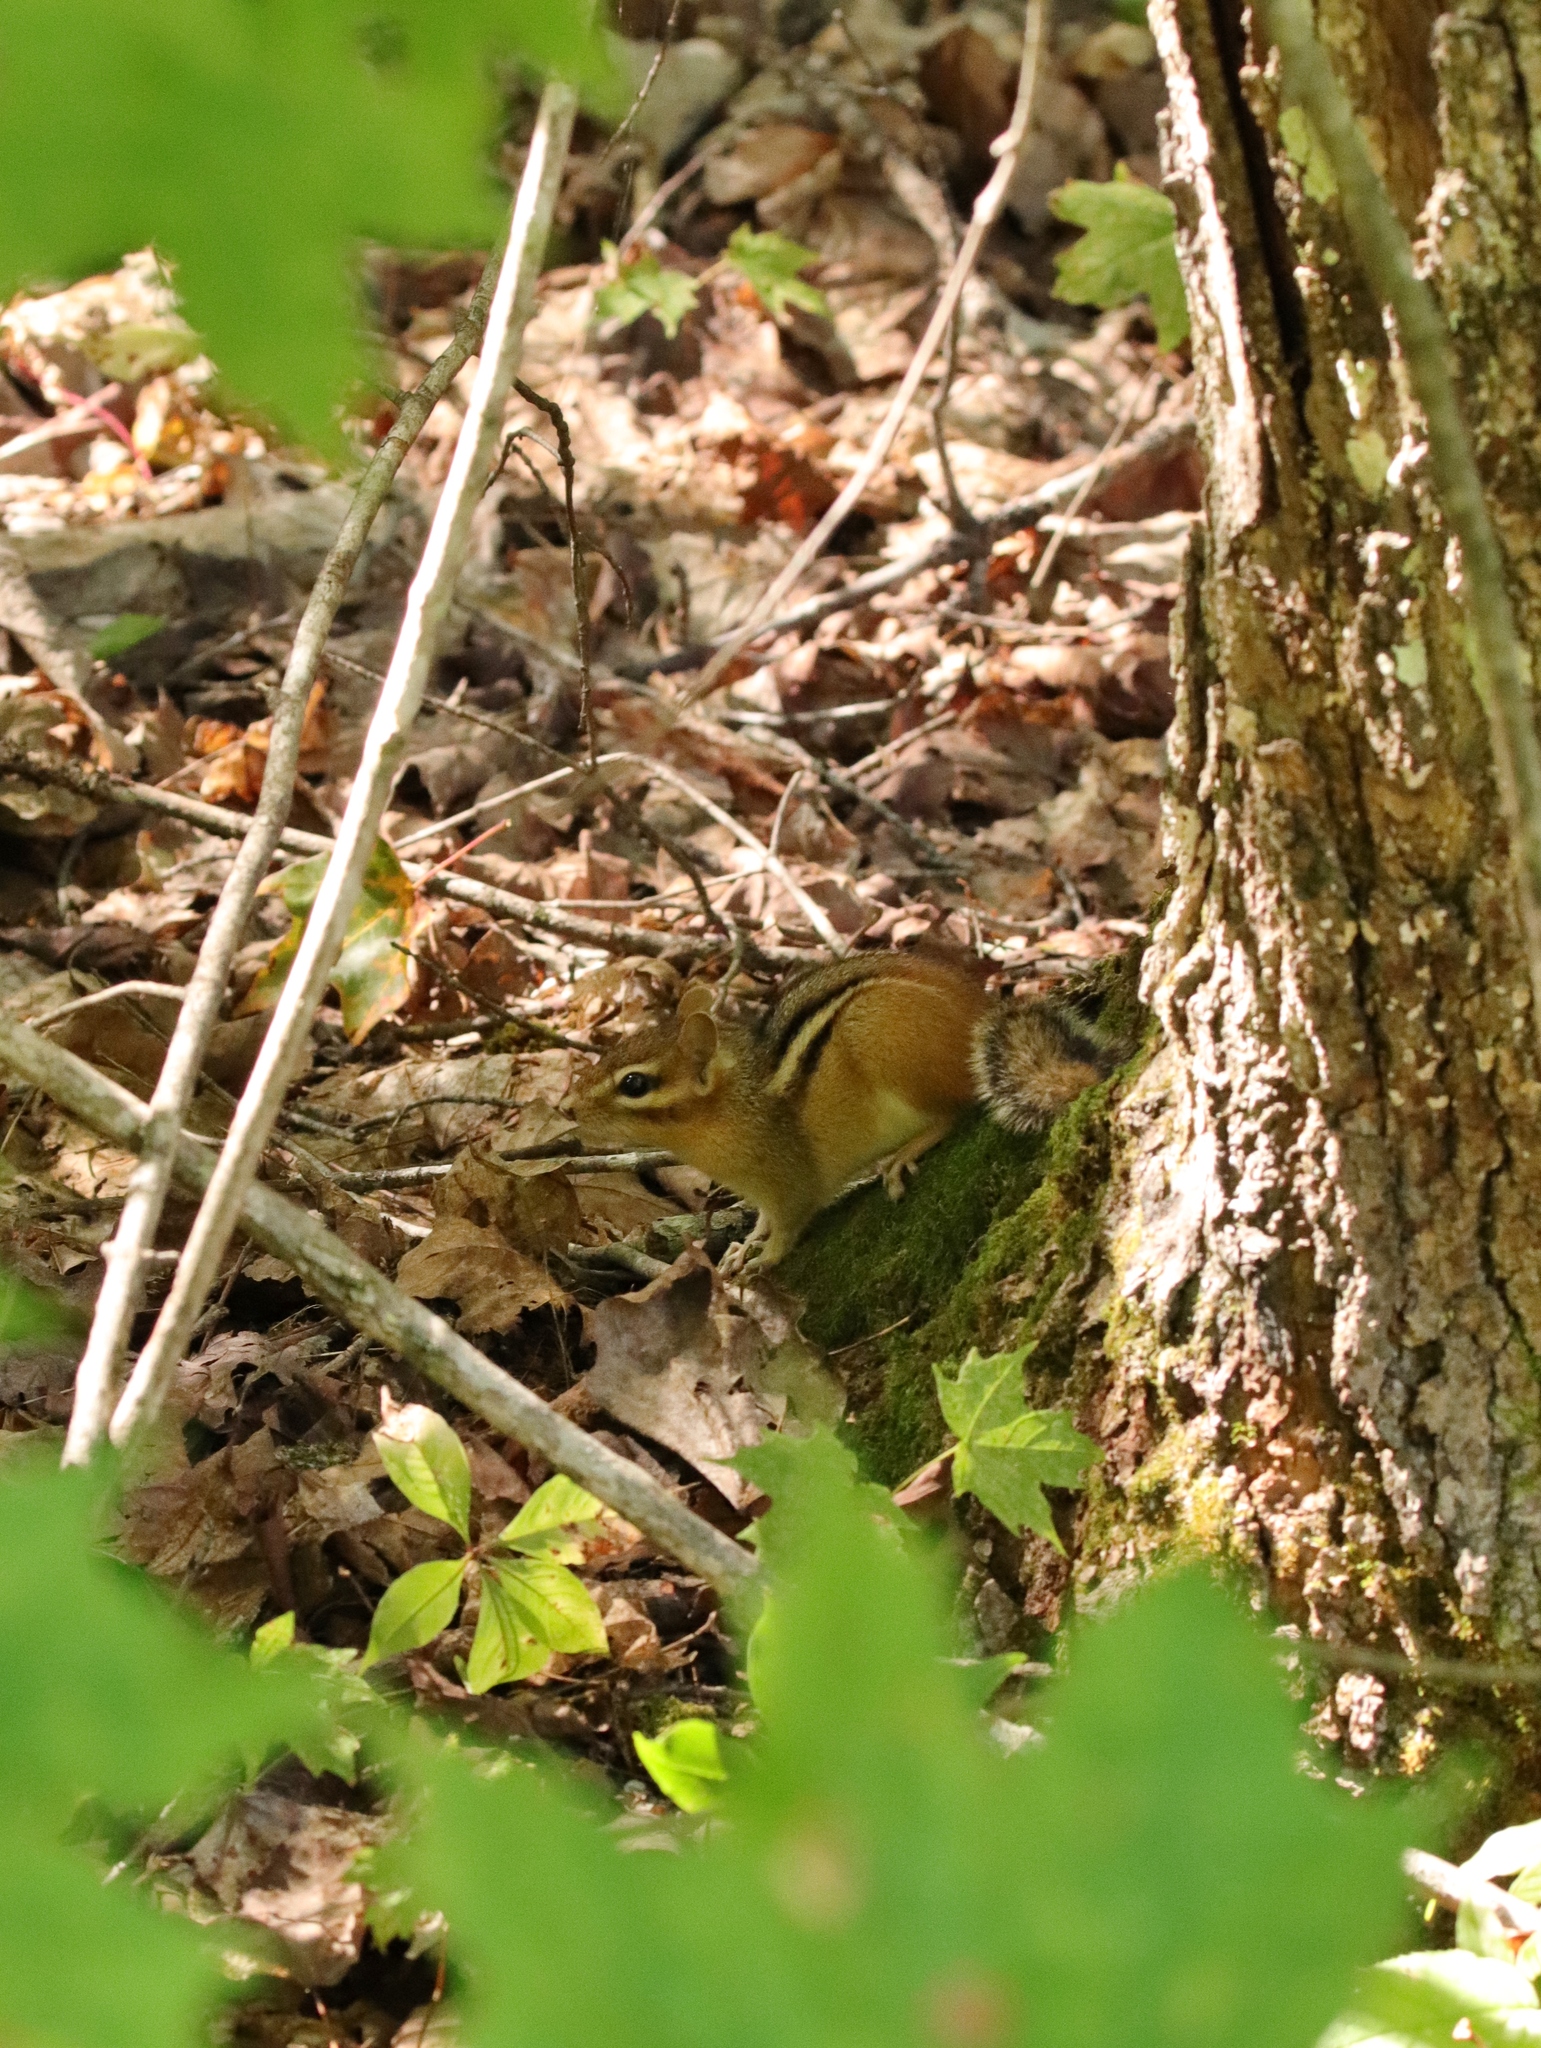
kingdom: Animalia
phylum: Chordata
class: Mammalia
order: Rodentia
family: Sciuridae
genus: Tamias
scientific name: Tamias striatus
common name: Eastern chipmunk
